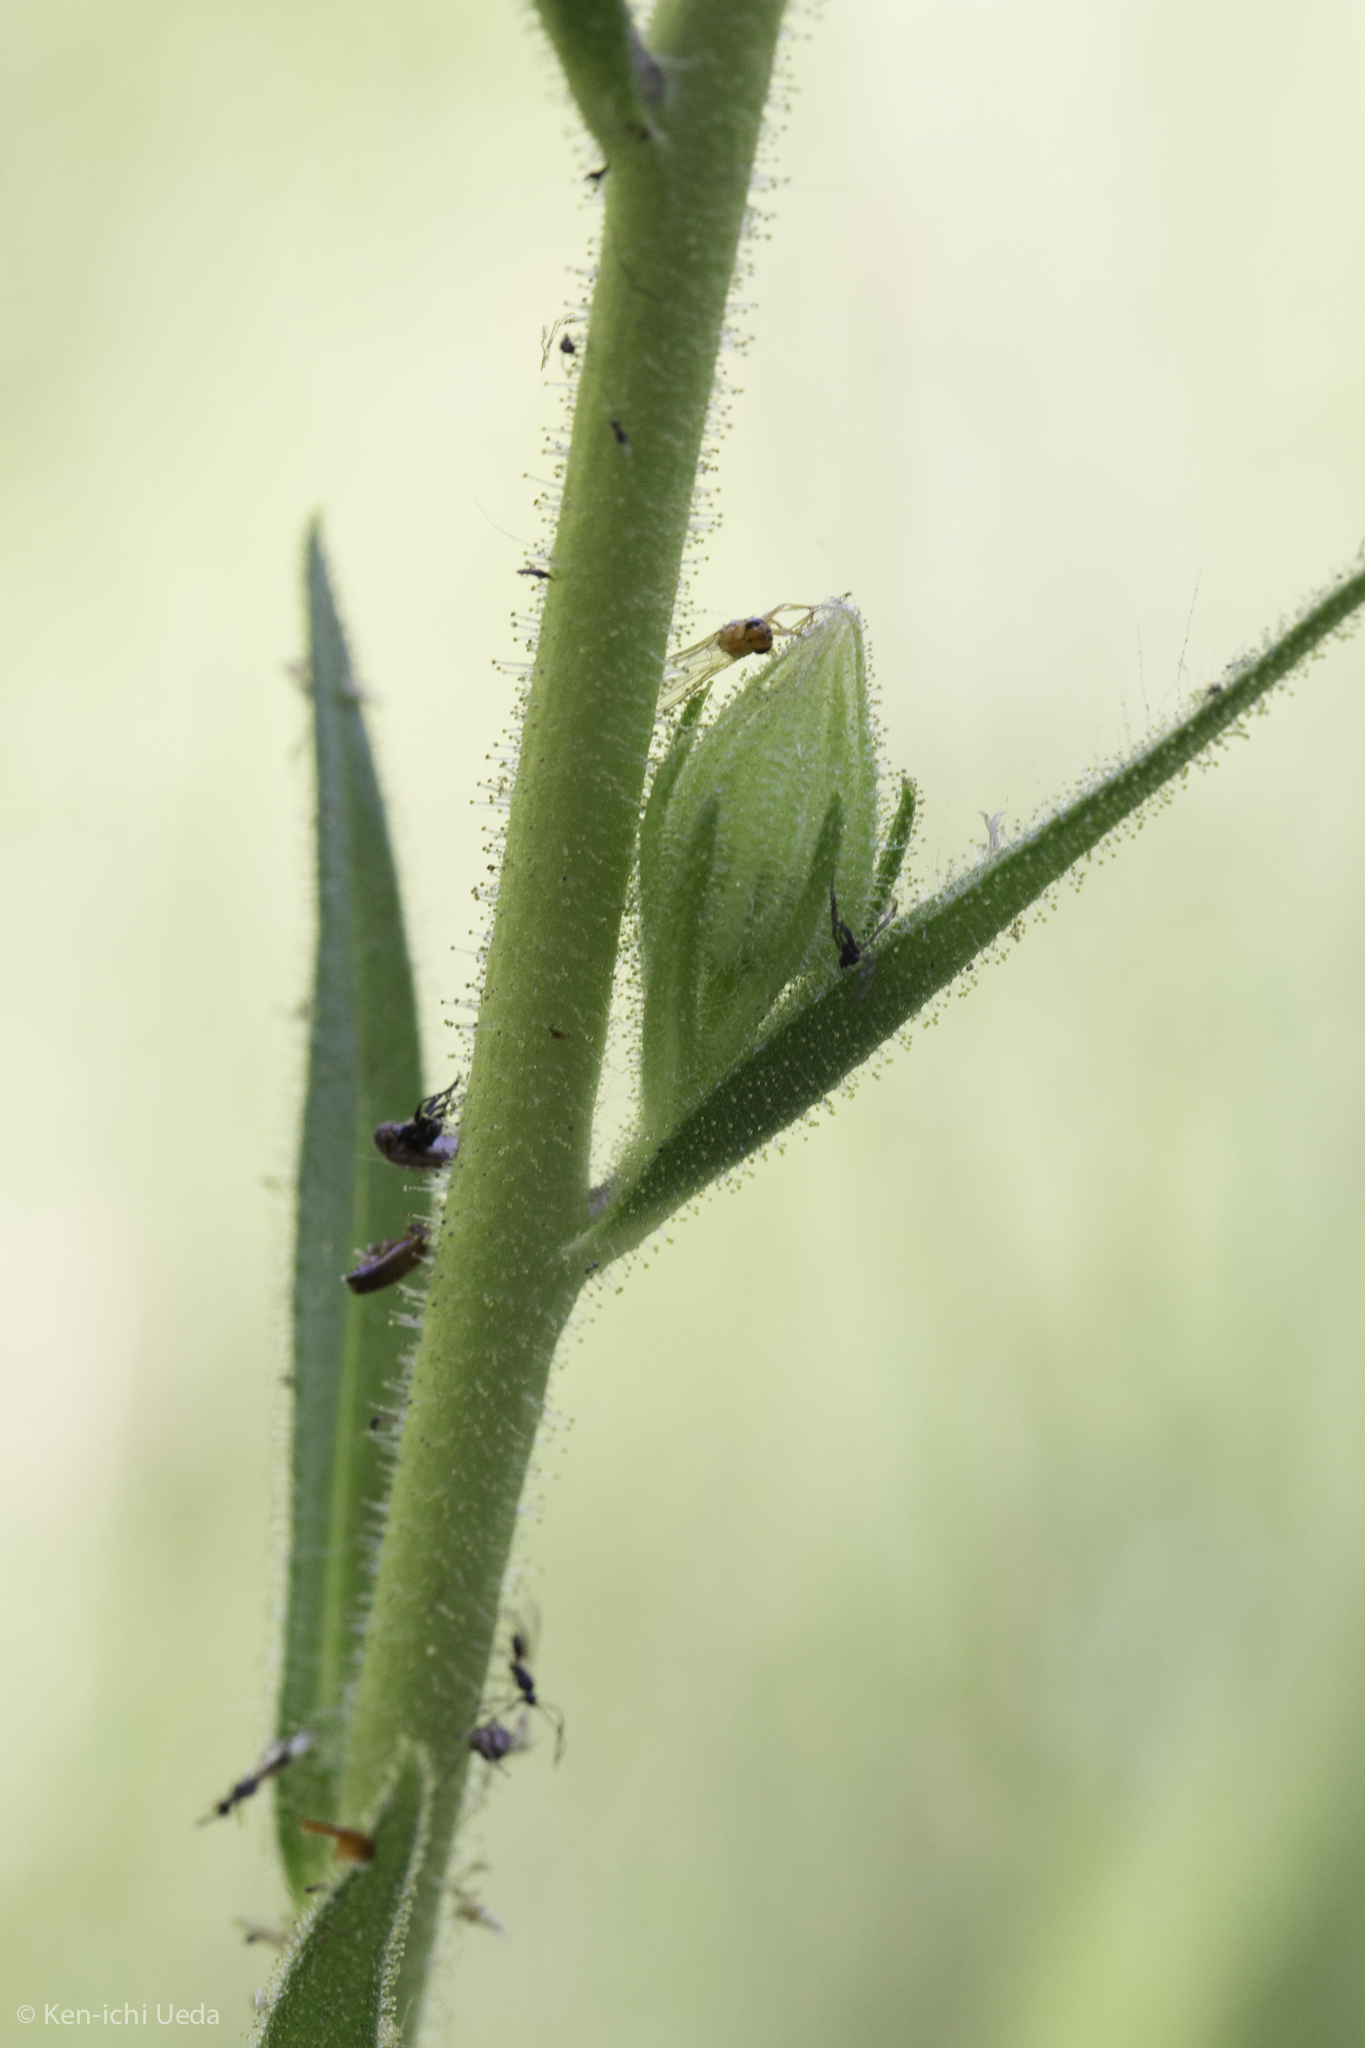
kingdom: Plantae
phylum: Tracheophyta
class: Magnoliopsida
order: Asterales
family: Asteraceae
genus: Kyhosia
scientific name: Kyhosia bolanderi
